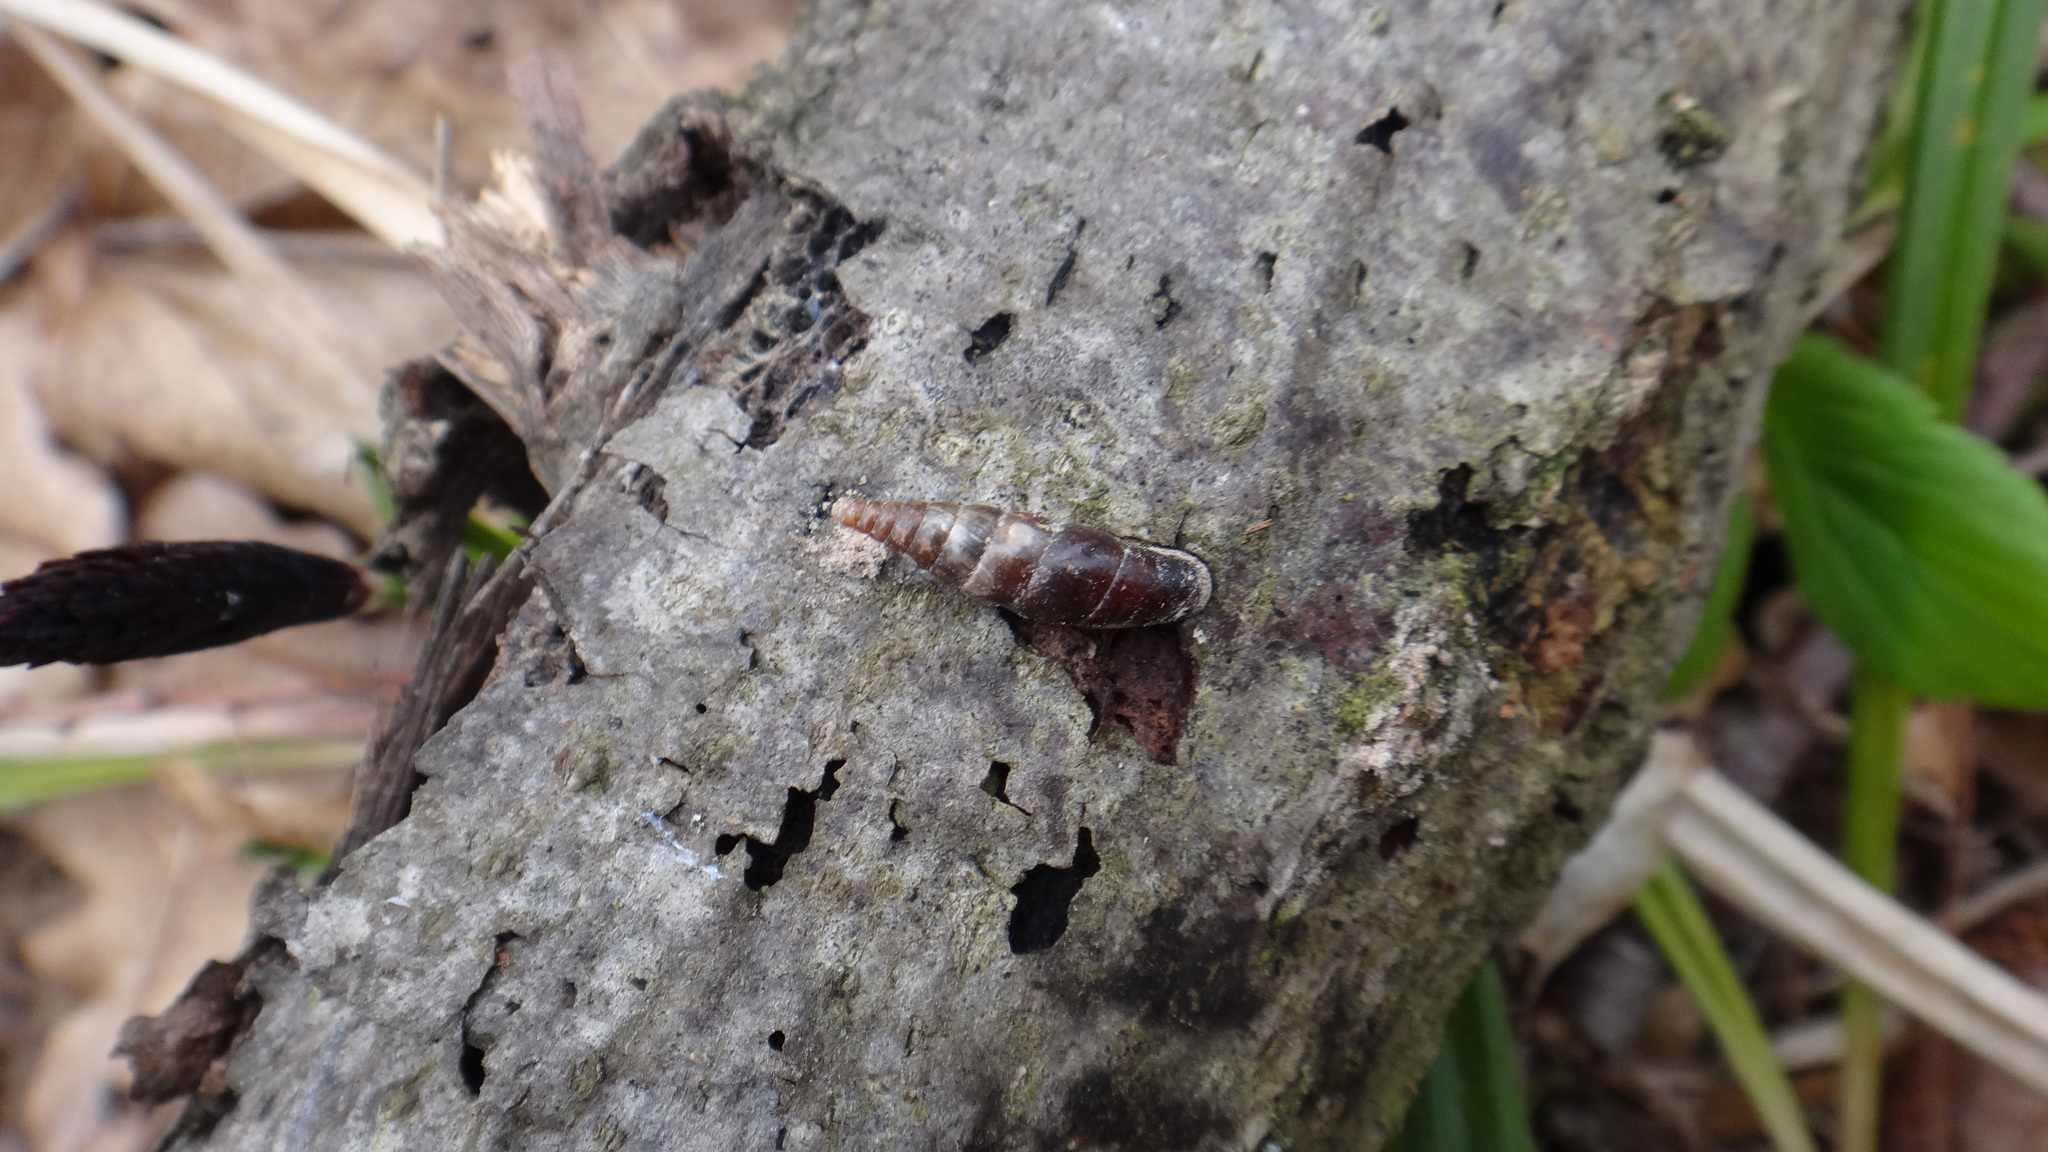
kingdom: Animalia
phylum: Mollusca
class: Gastropoda
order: Stylommatophora
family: Clausiliidae
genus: Cochlodina
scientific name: Cochlodina laminata
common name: Plaited door snail
